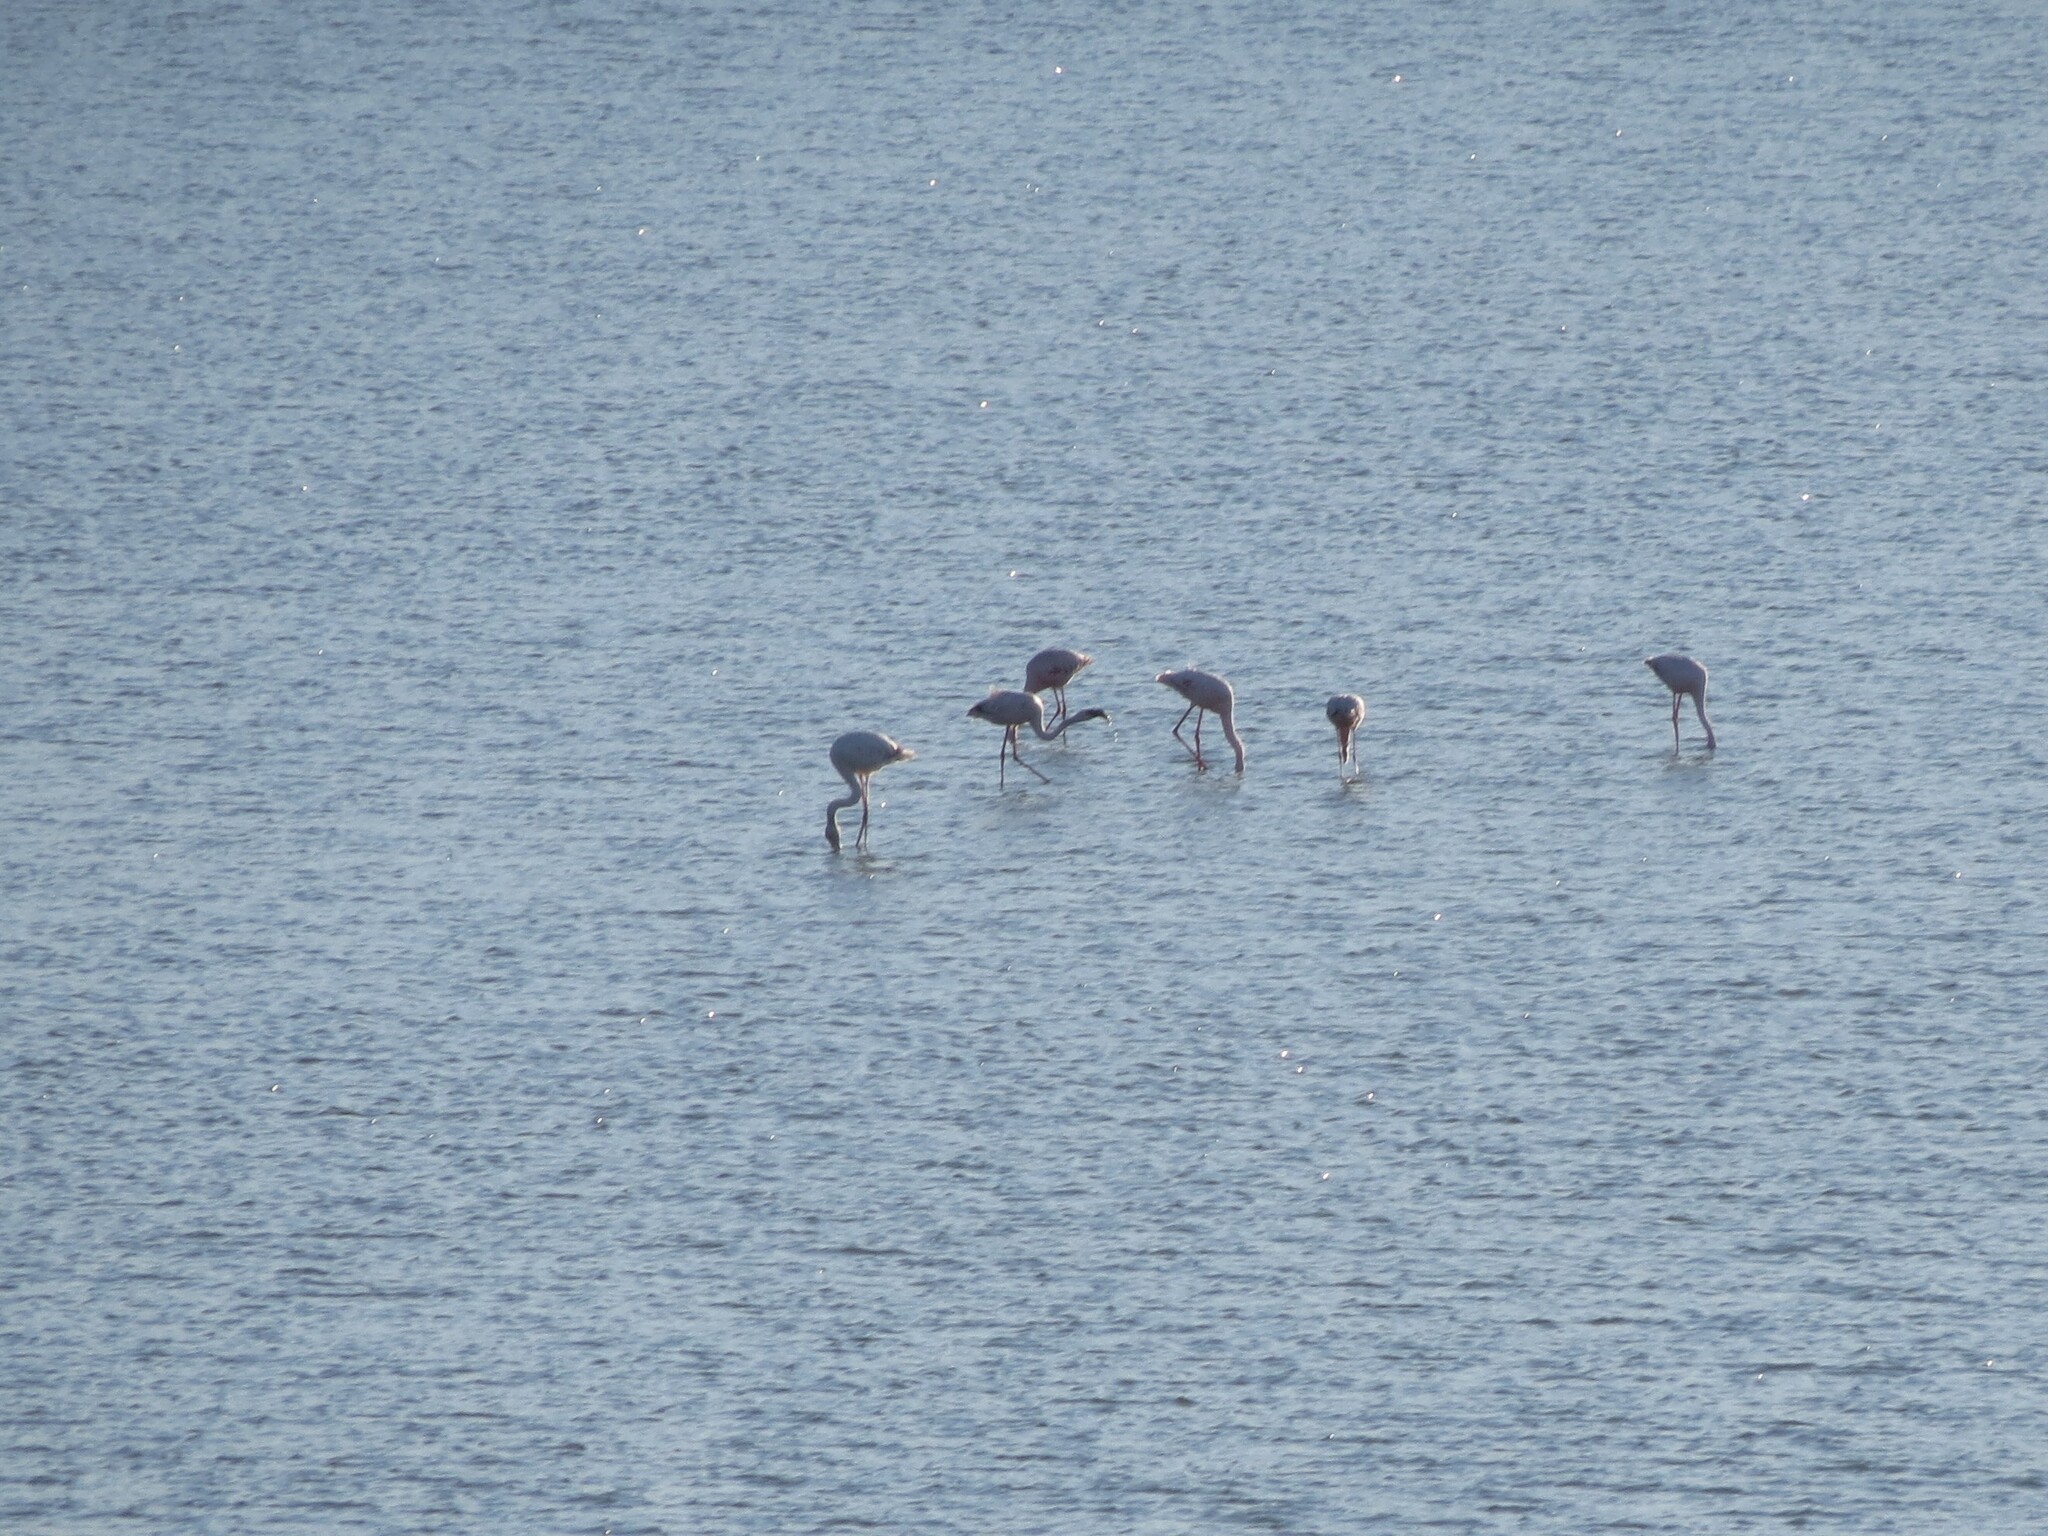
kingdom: Animalia
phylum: Chordata
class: Aves
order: Phoenicopteriformes
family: Phoenicopteridae
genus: Phoeniconaias
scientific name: Phoeniconaias minor
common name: Lesser flamingo
